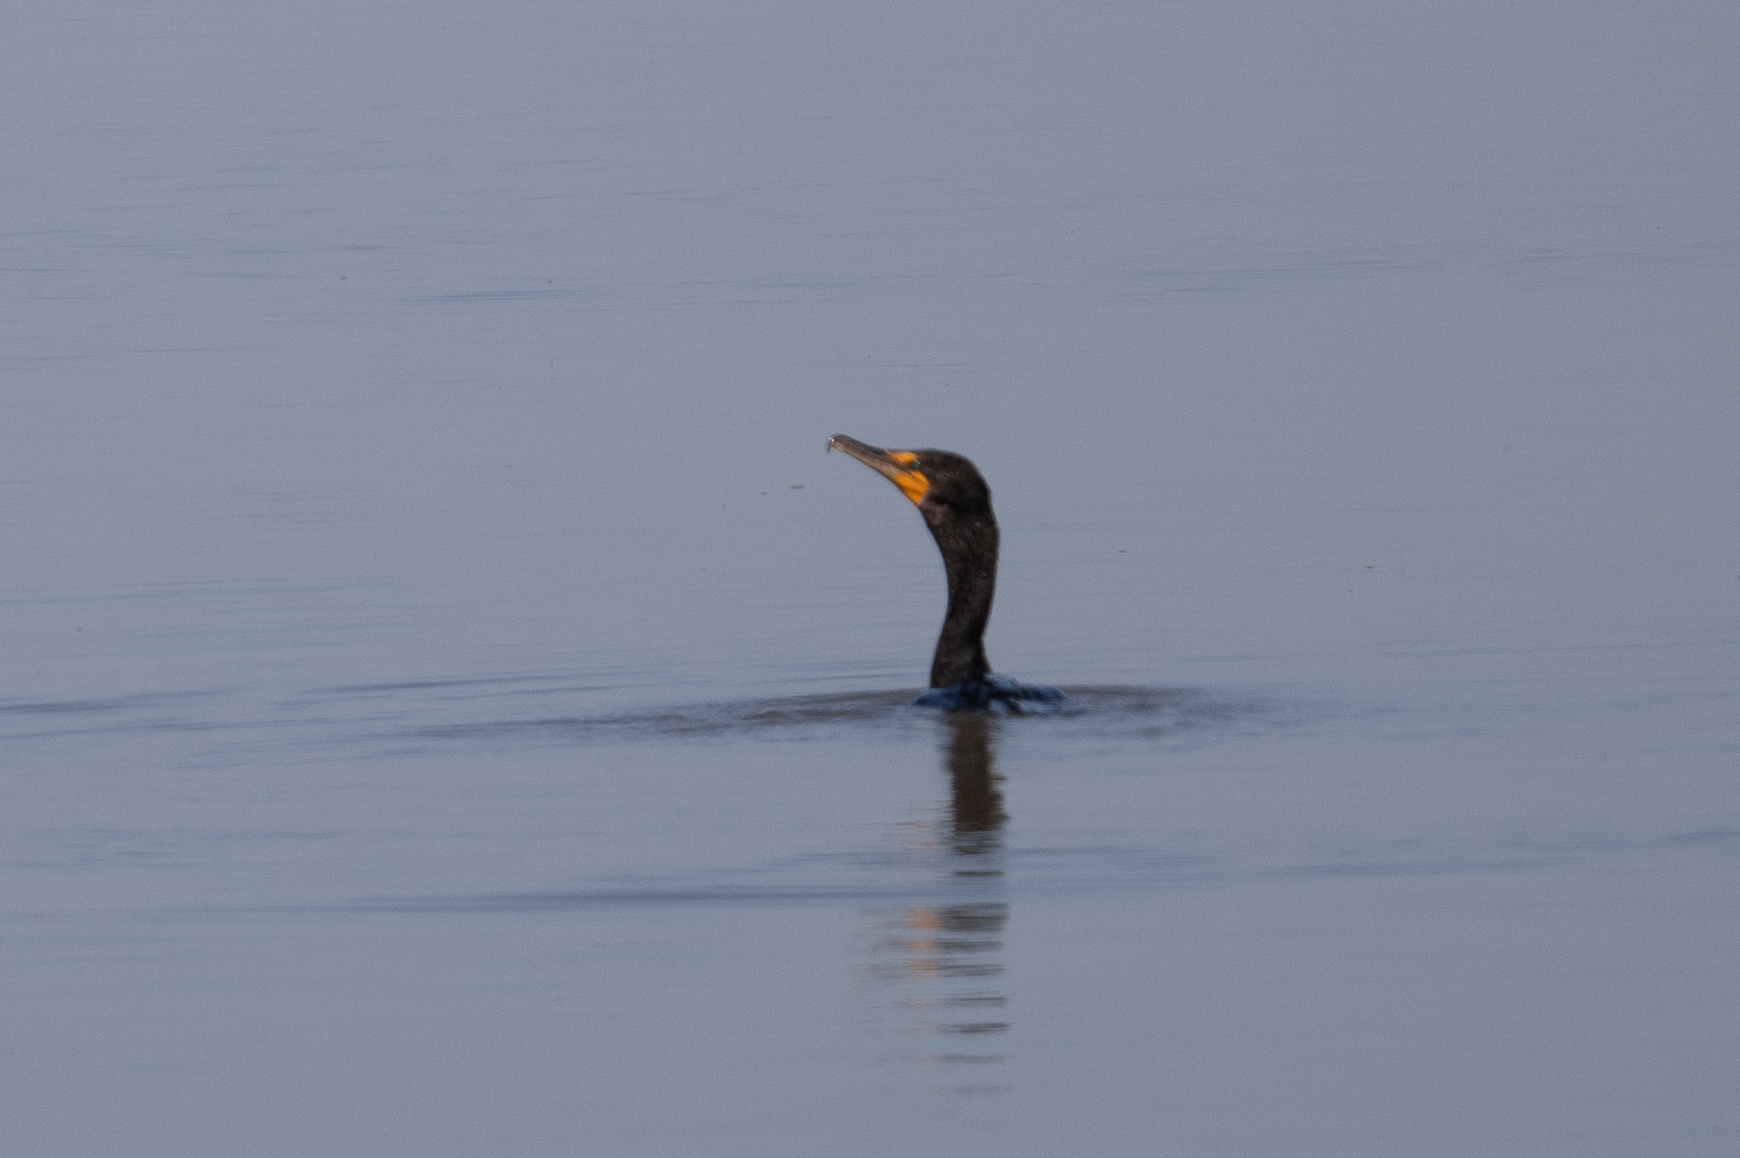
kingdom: Animalia
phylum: Chordata
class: Aves
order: Suliformes
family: Phalacrocoracidae
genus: Phalacrocorax
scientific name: Phalacrocorax auritus
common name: Double-crested cormorant
